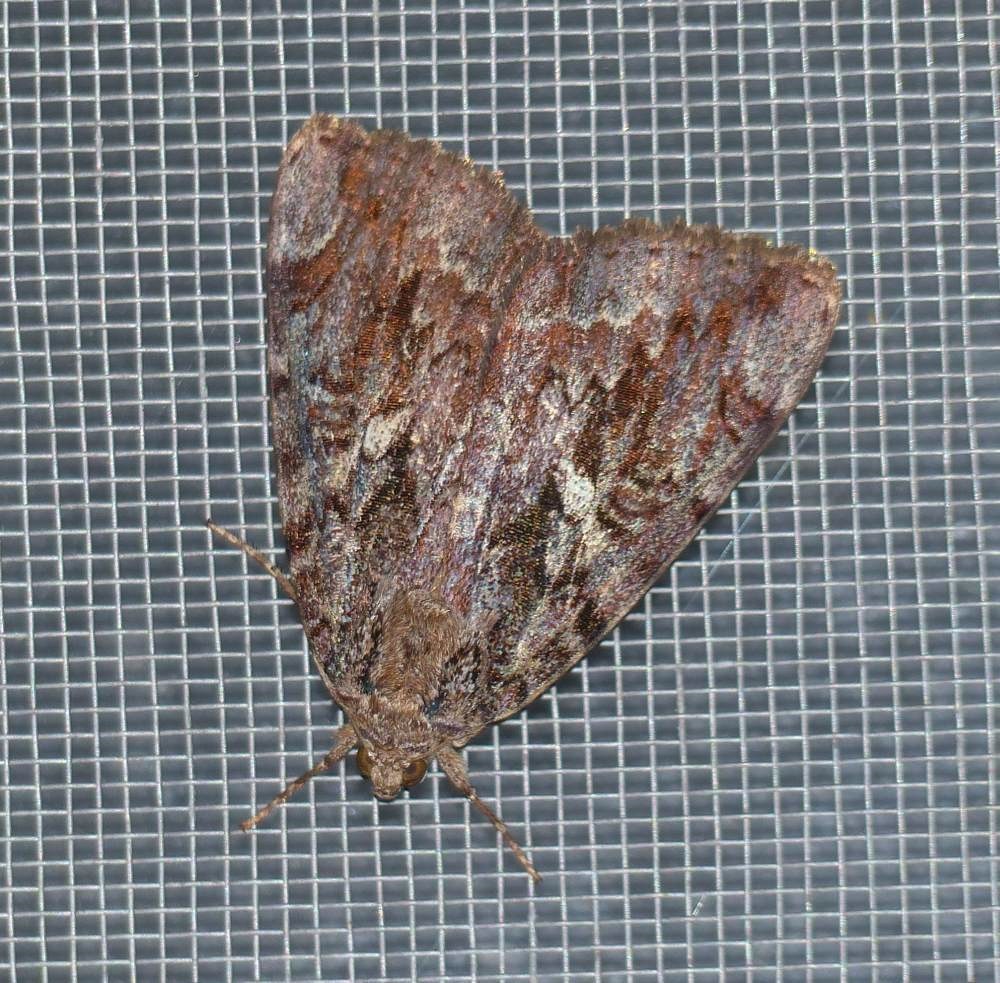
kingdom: Animalia
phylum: Arthropoda
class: Insecta
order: Lepidoptera
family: Erebidae
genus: Catocala
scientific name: Catocala innubens
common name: Betrothed underwing
